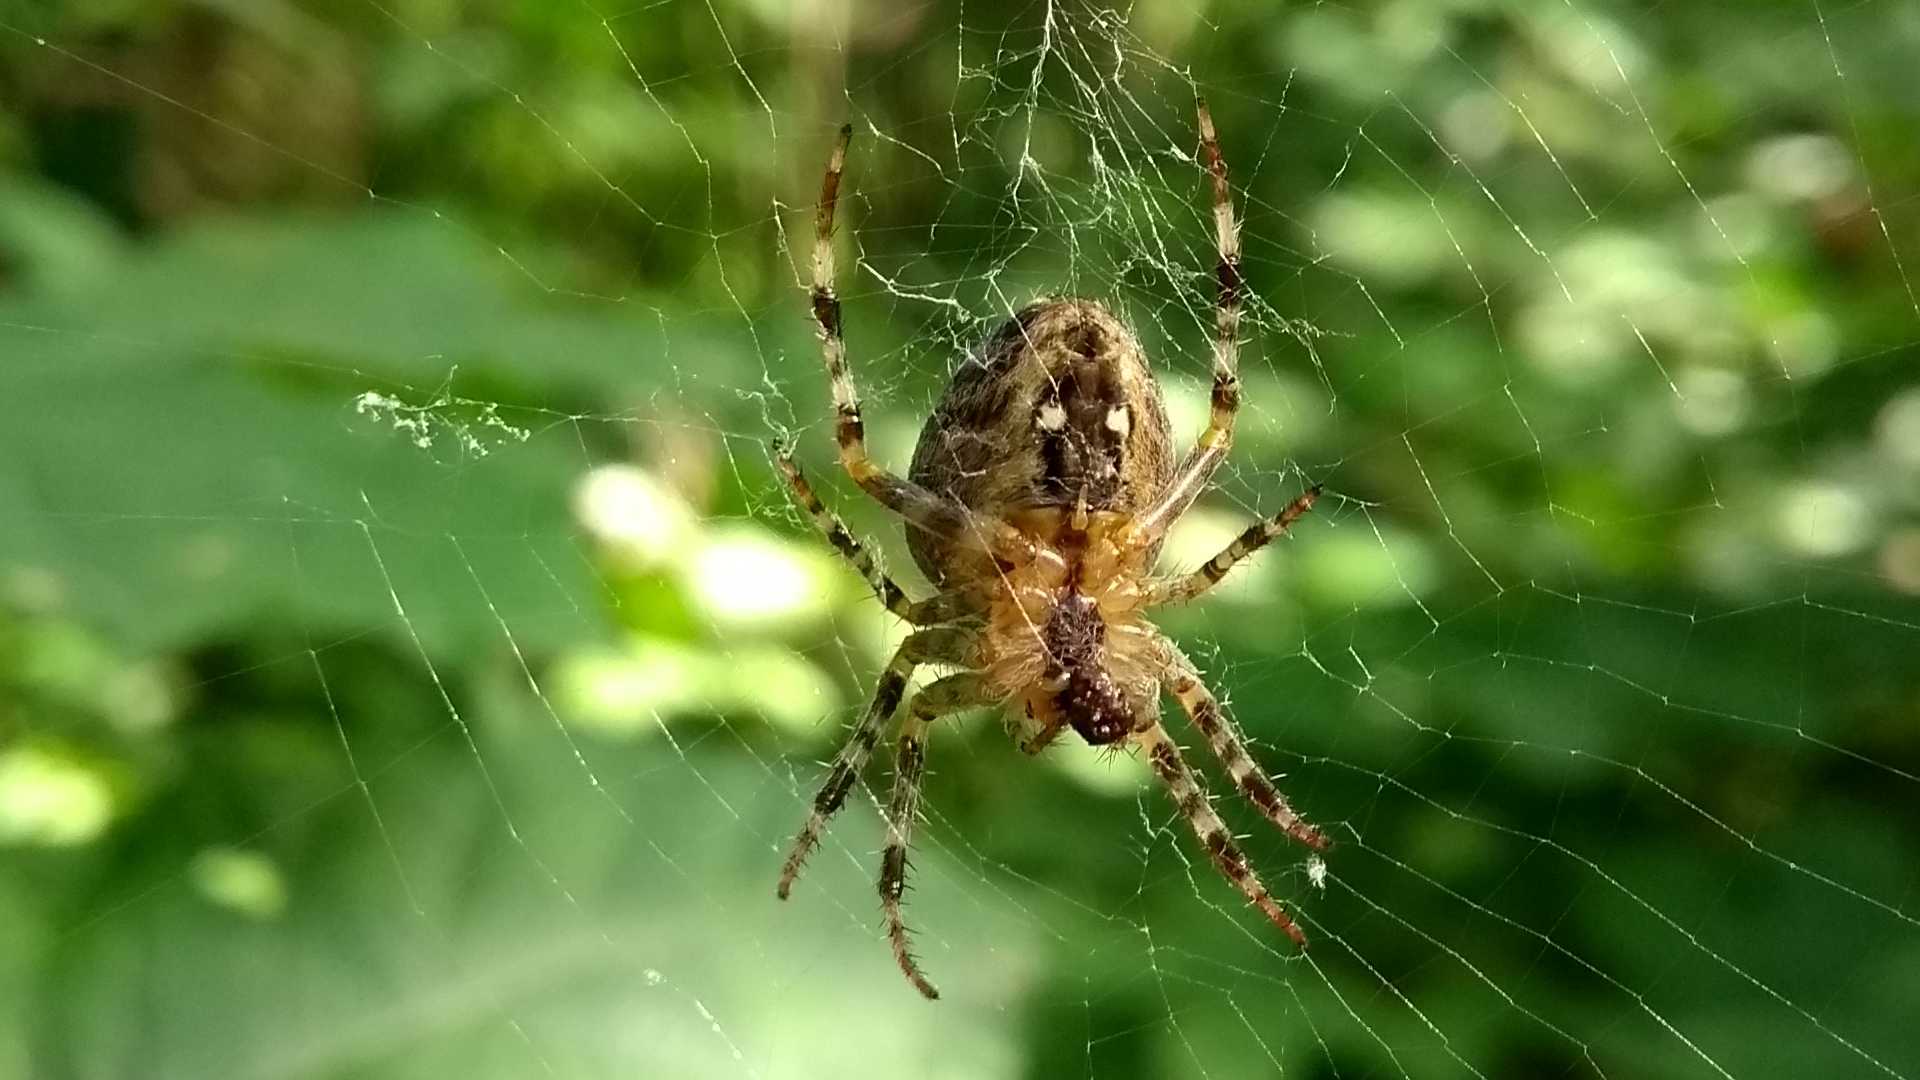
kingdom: Animalia
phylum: Arthropoda
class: Arachnida
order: Araneae
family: Araneidae
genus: Araneus
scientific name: Araneus diadematus
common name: Cross orbweaver
